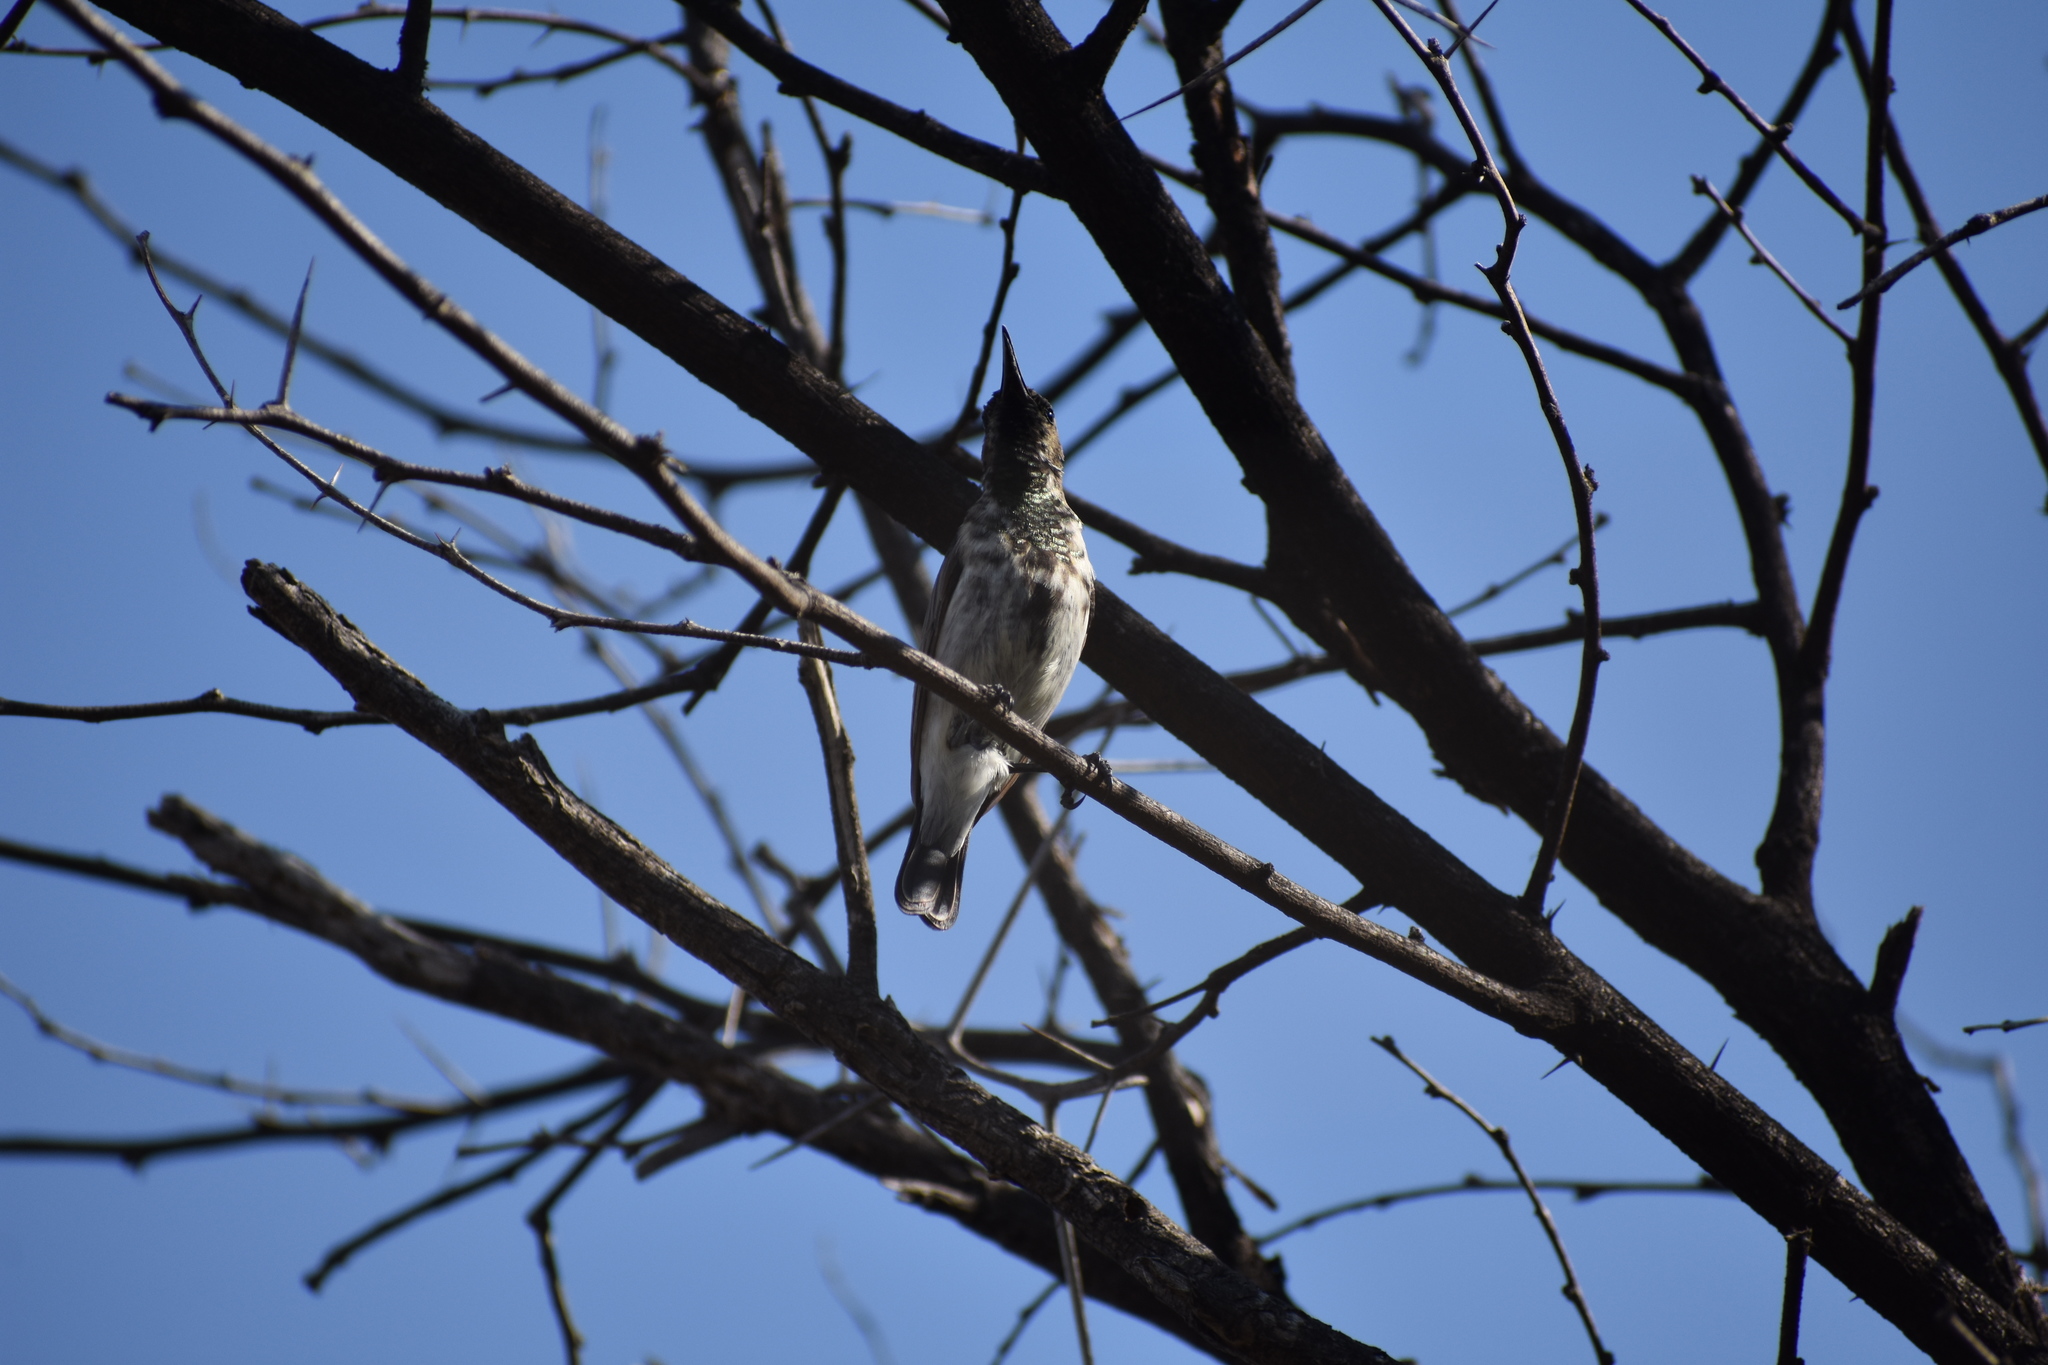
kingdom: Animalia
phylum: Chordata
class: Aves
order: Passeriformes
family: Nectariniidae
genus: Cinnyris
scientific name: Cinnyris fuscus
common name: Dusky sunbird
